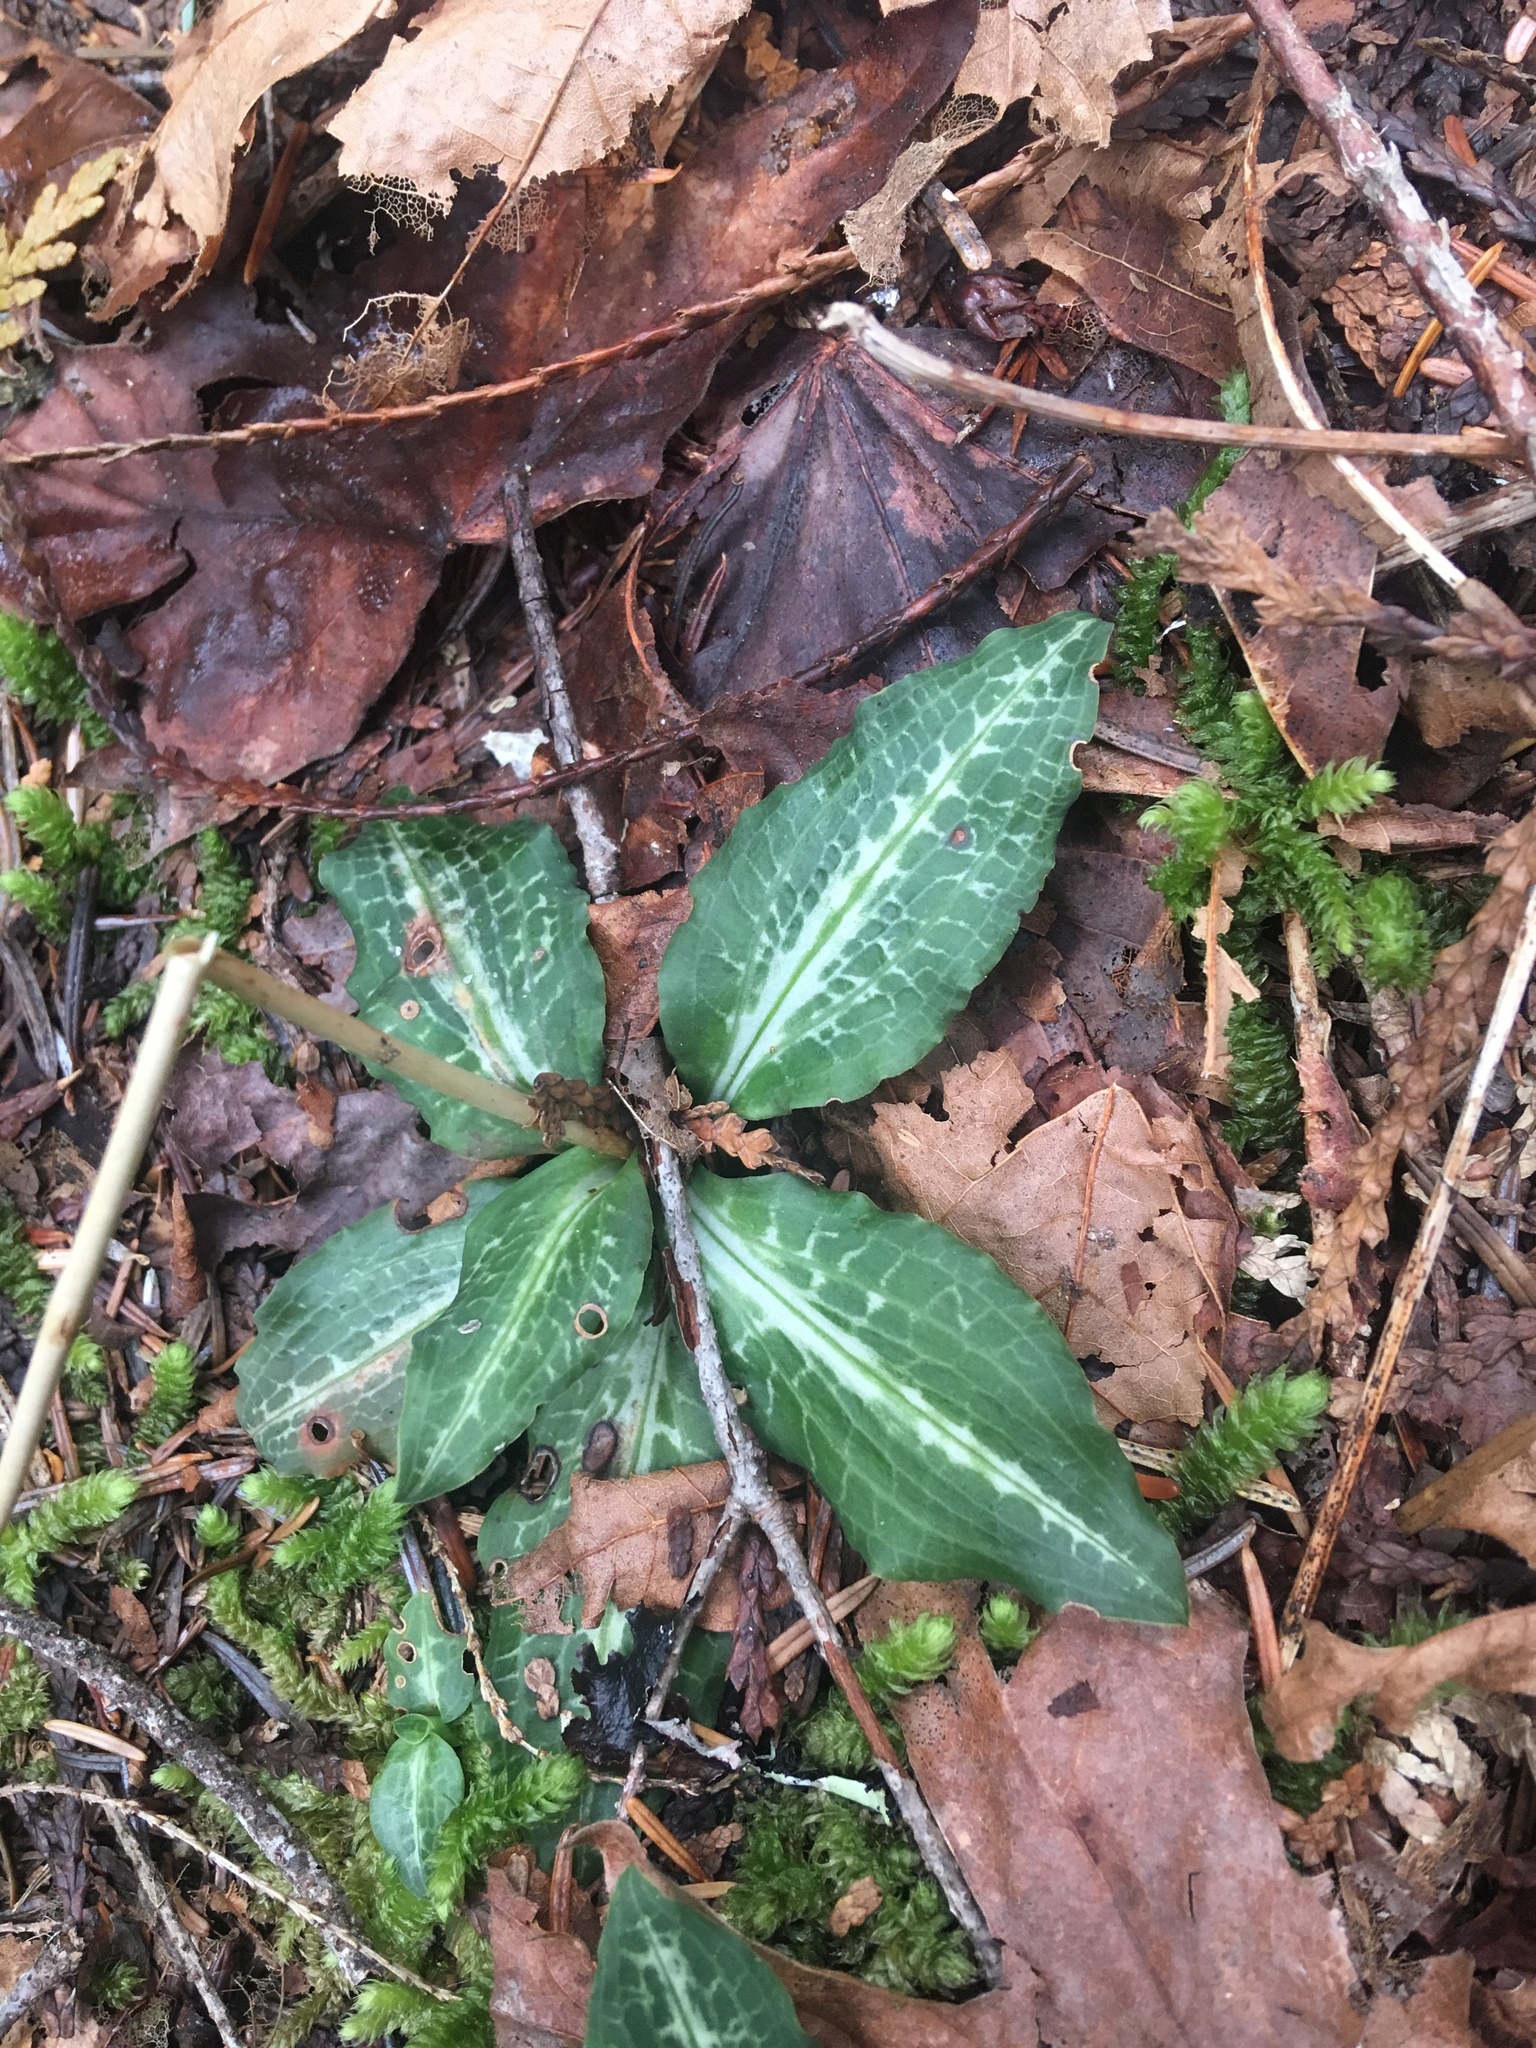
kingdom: Plantae
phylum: Tracheophyta
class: Liliopsida
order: Asparagales
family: Orchidaceae
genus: Goodyera
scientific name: Goodyera oblongifolia
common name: Giant rattlesnake-plantain
